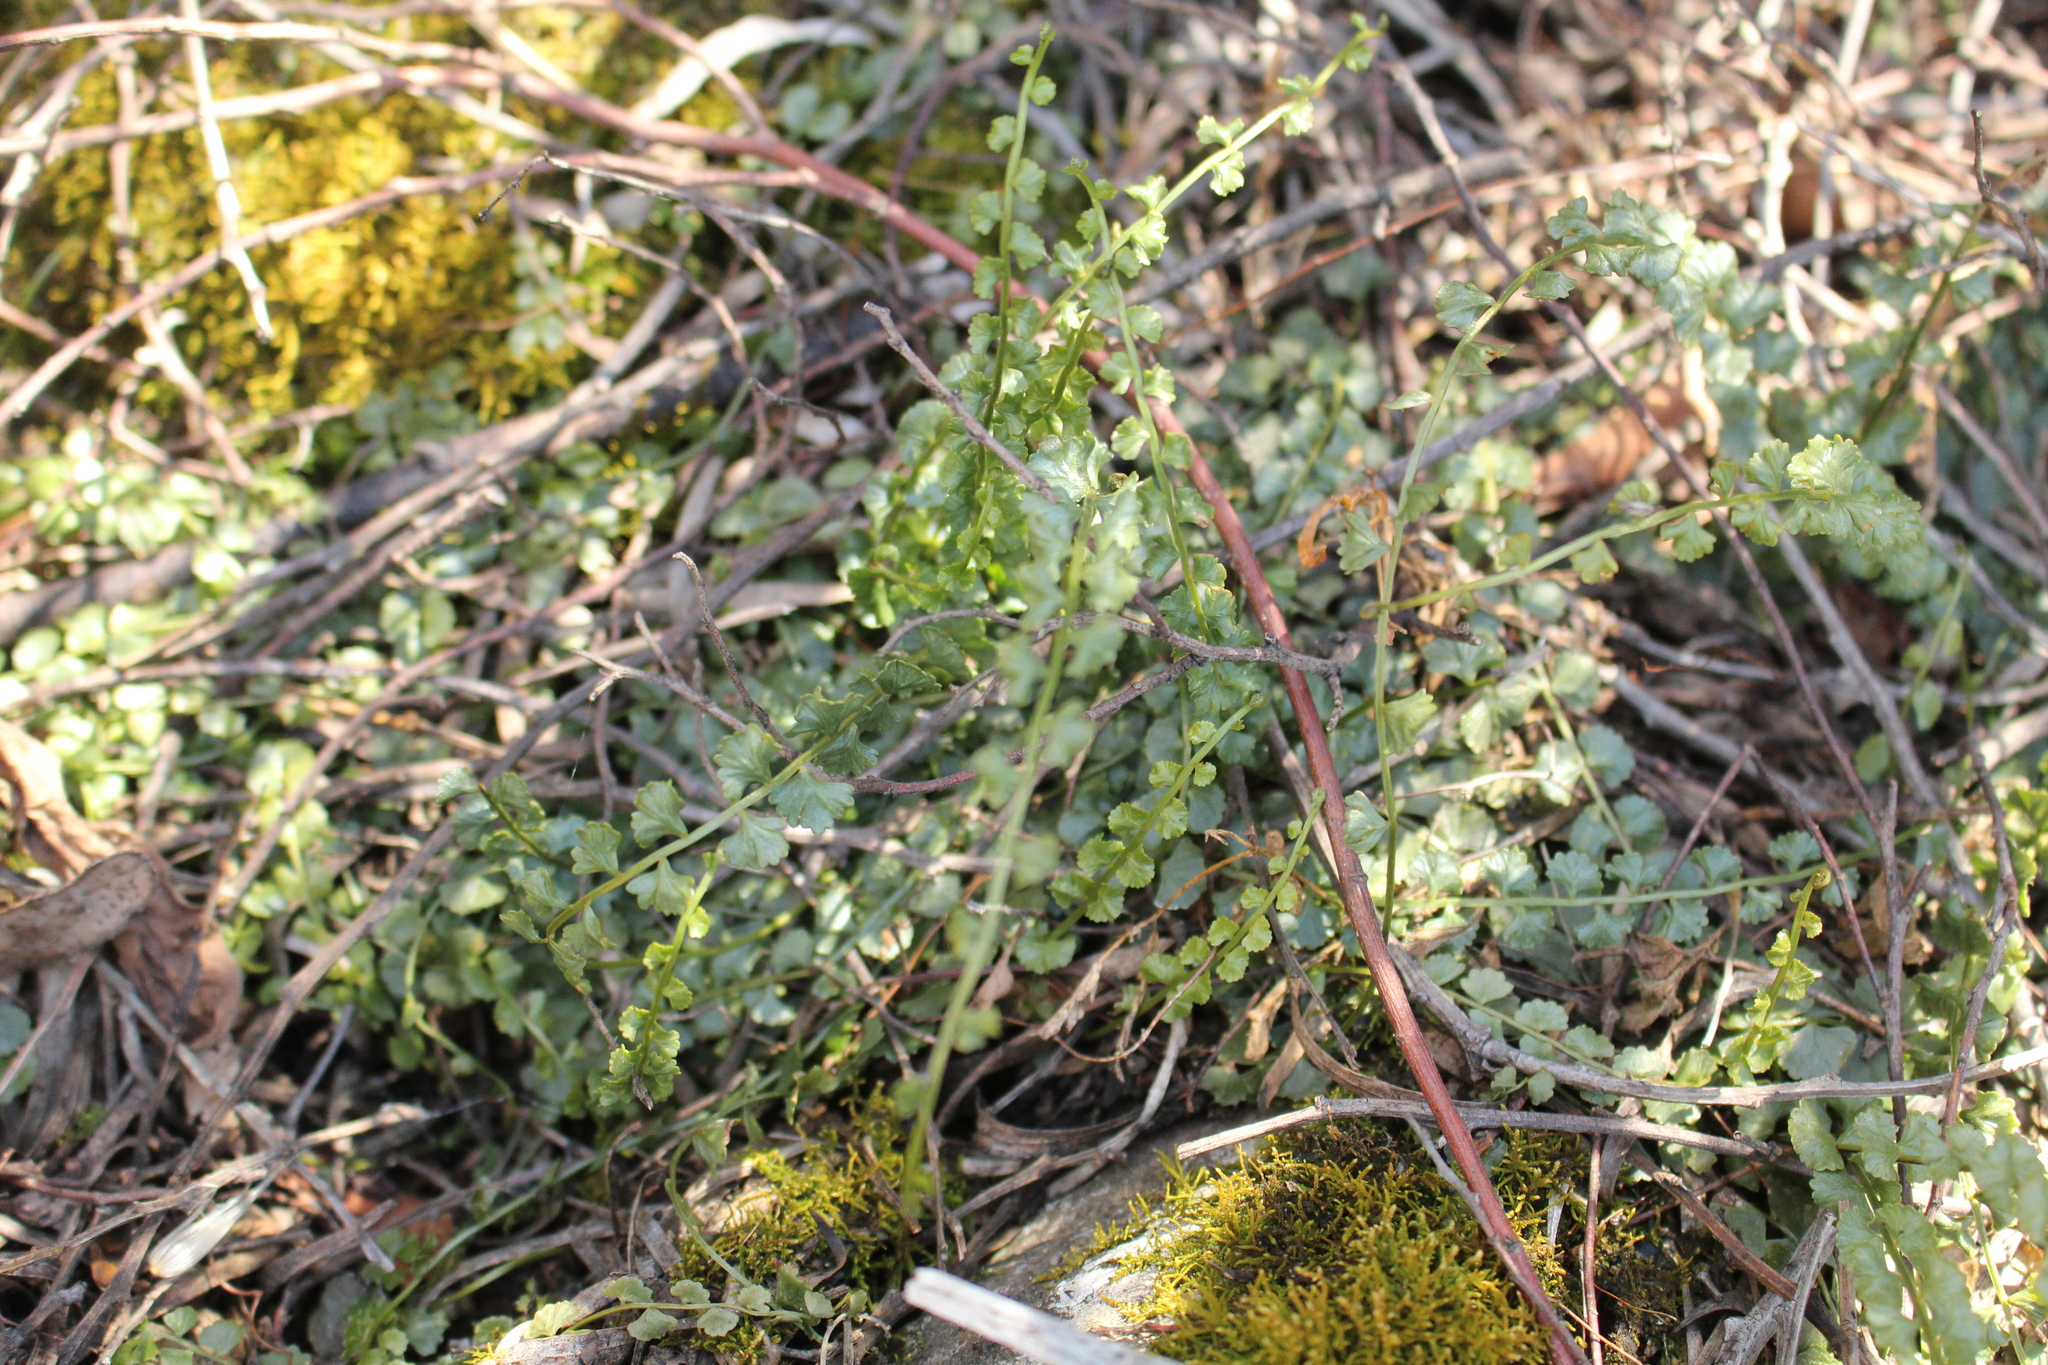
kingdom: Plantae
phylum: Tracheophyta
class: Polypodiopsida
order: Polypodiales
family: Aspleniaceae
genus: Asplenium
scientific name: Asplenium flabellifolium
